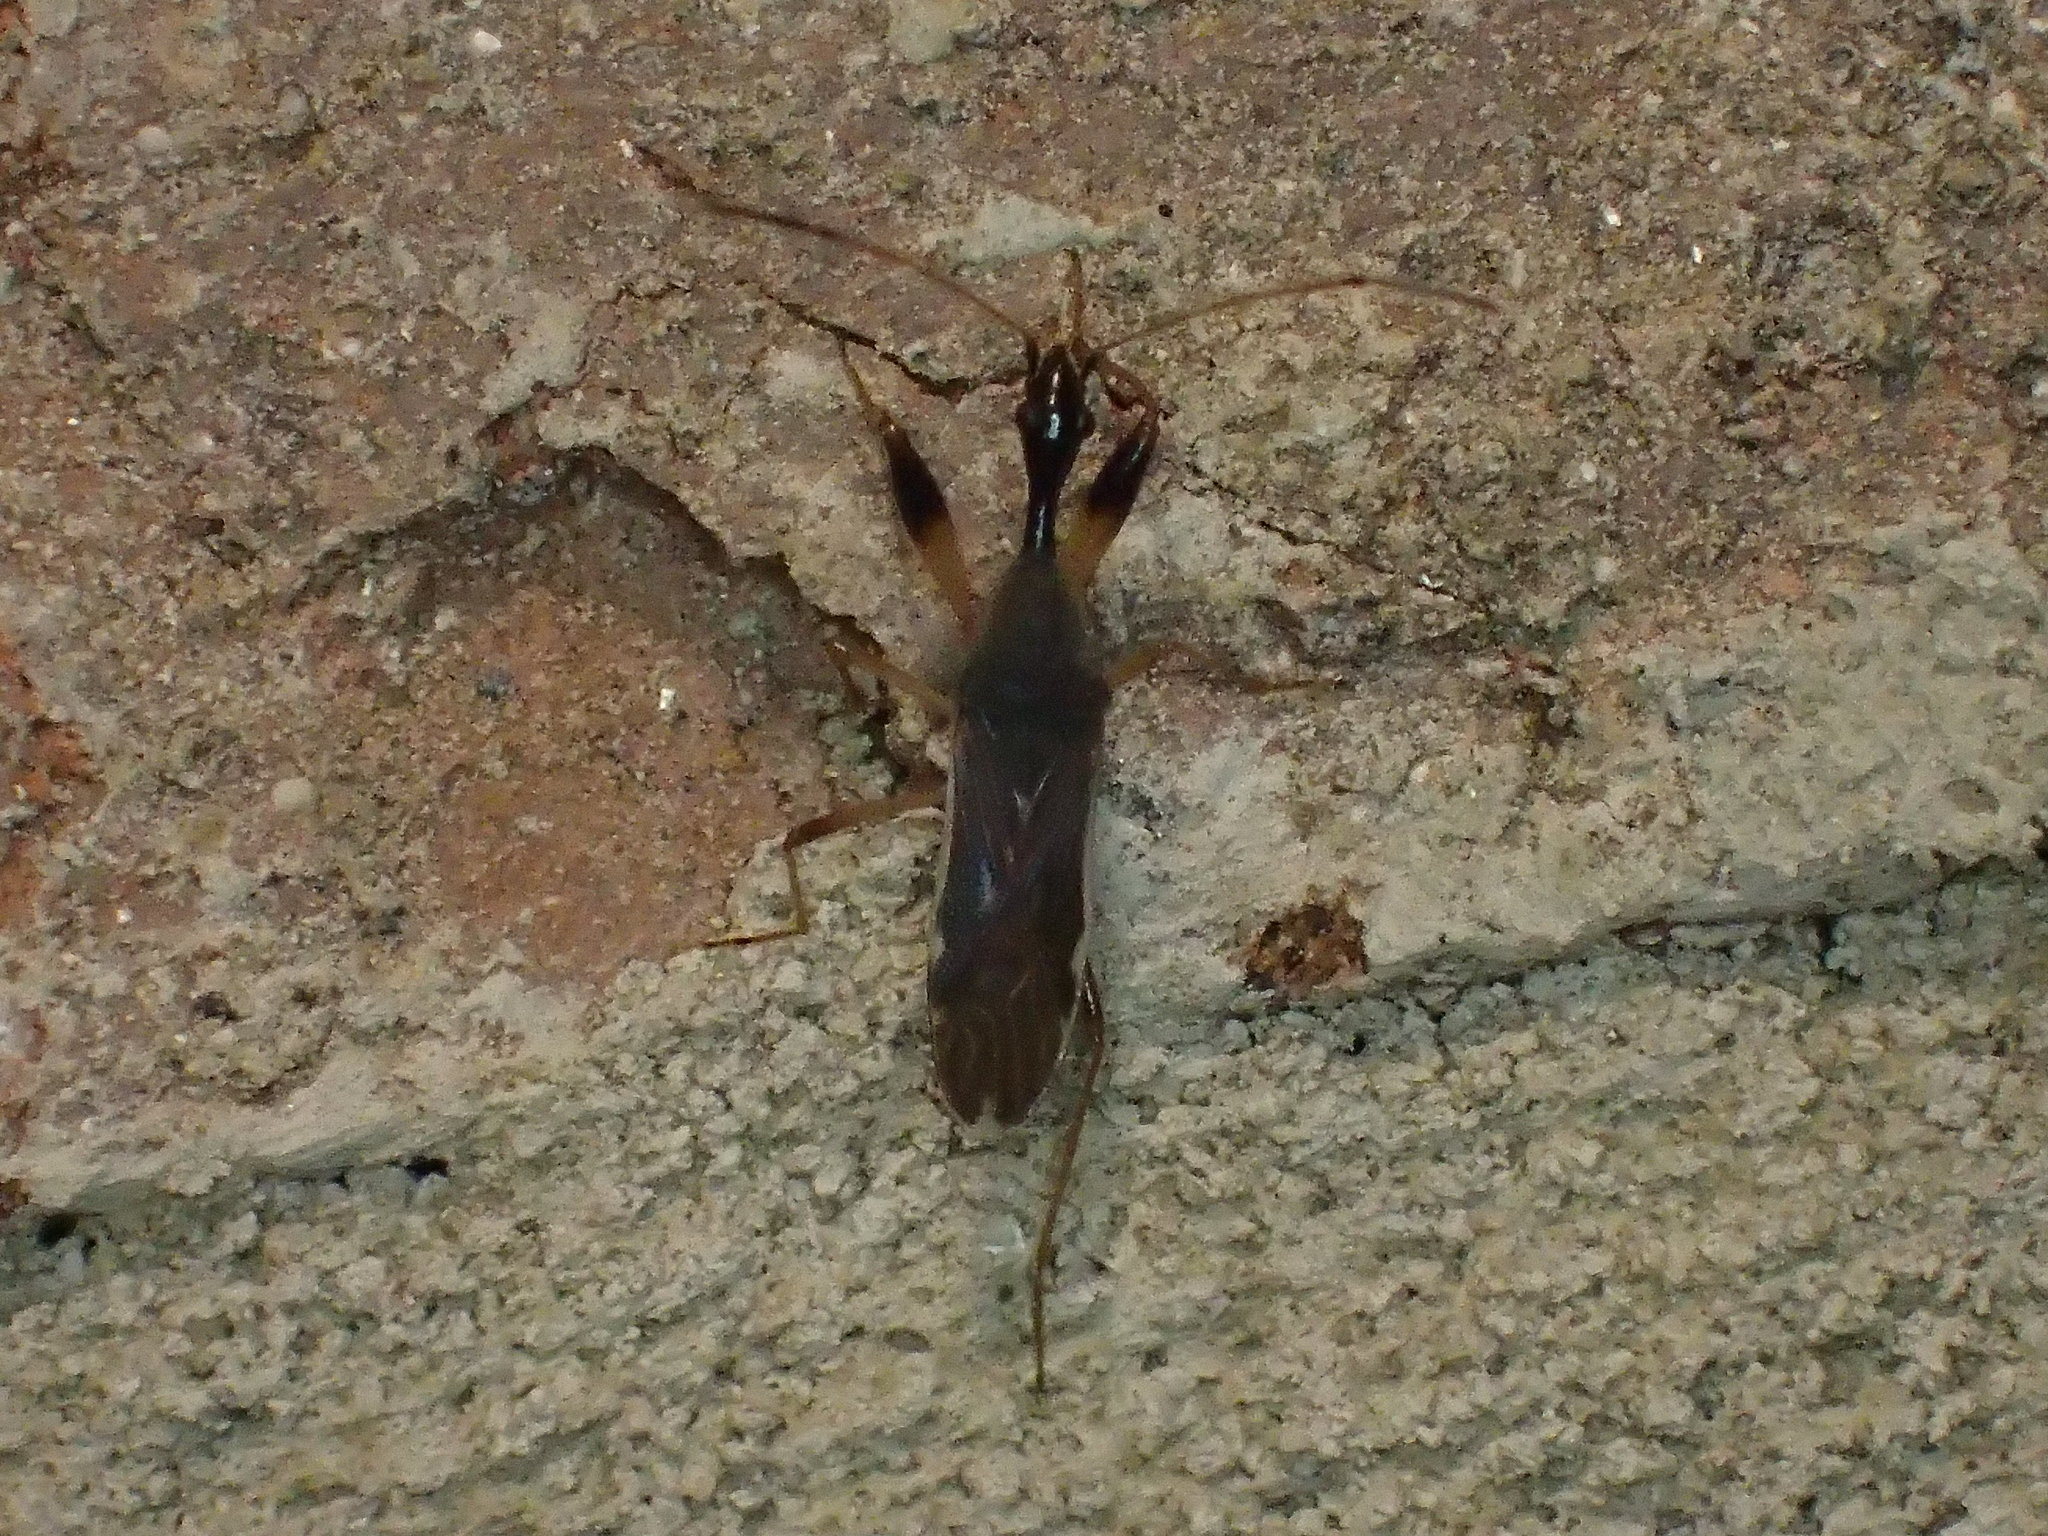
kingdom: Animalia
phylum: Arthropoda
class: Insecta
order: Hemiptera
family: Rhyparochromidae
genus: Myodocha
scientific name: Myodocha serripes
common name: Long-necked seed bug
